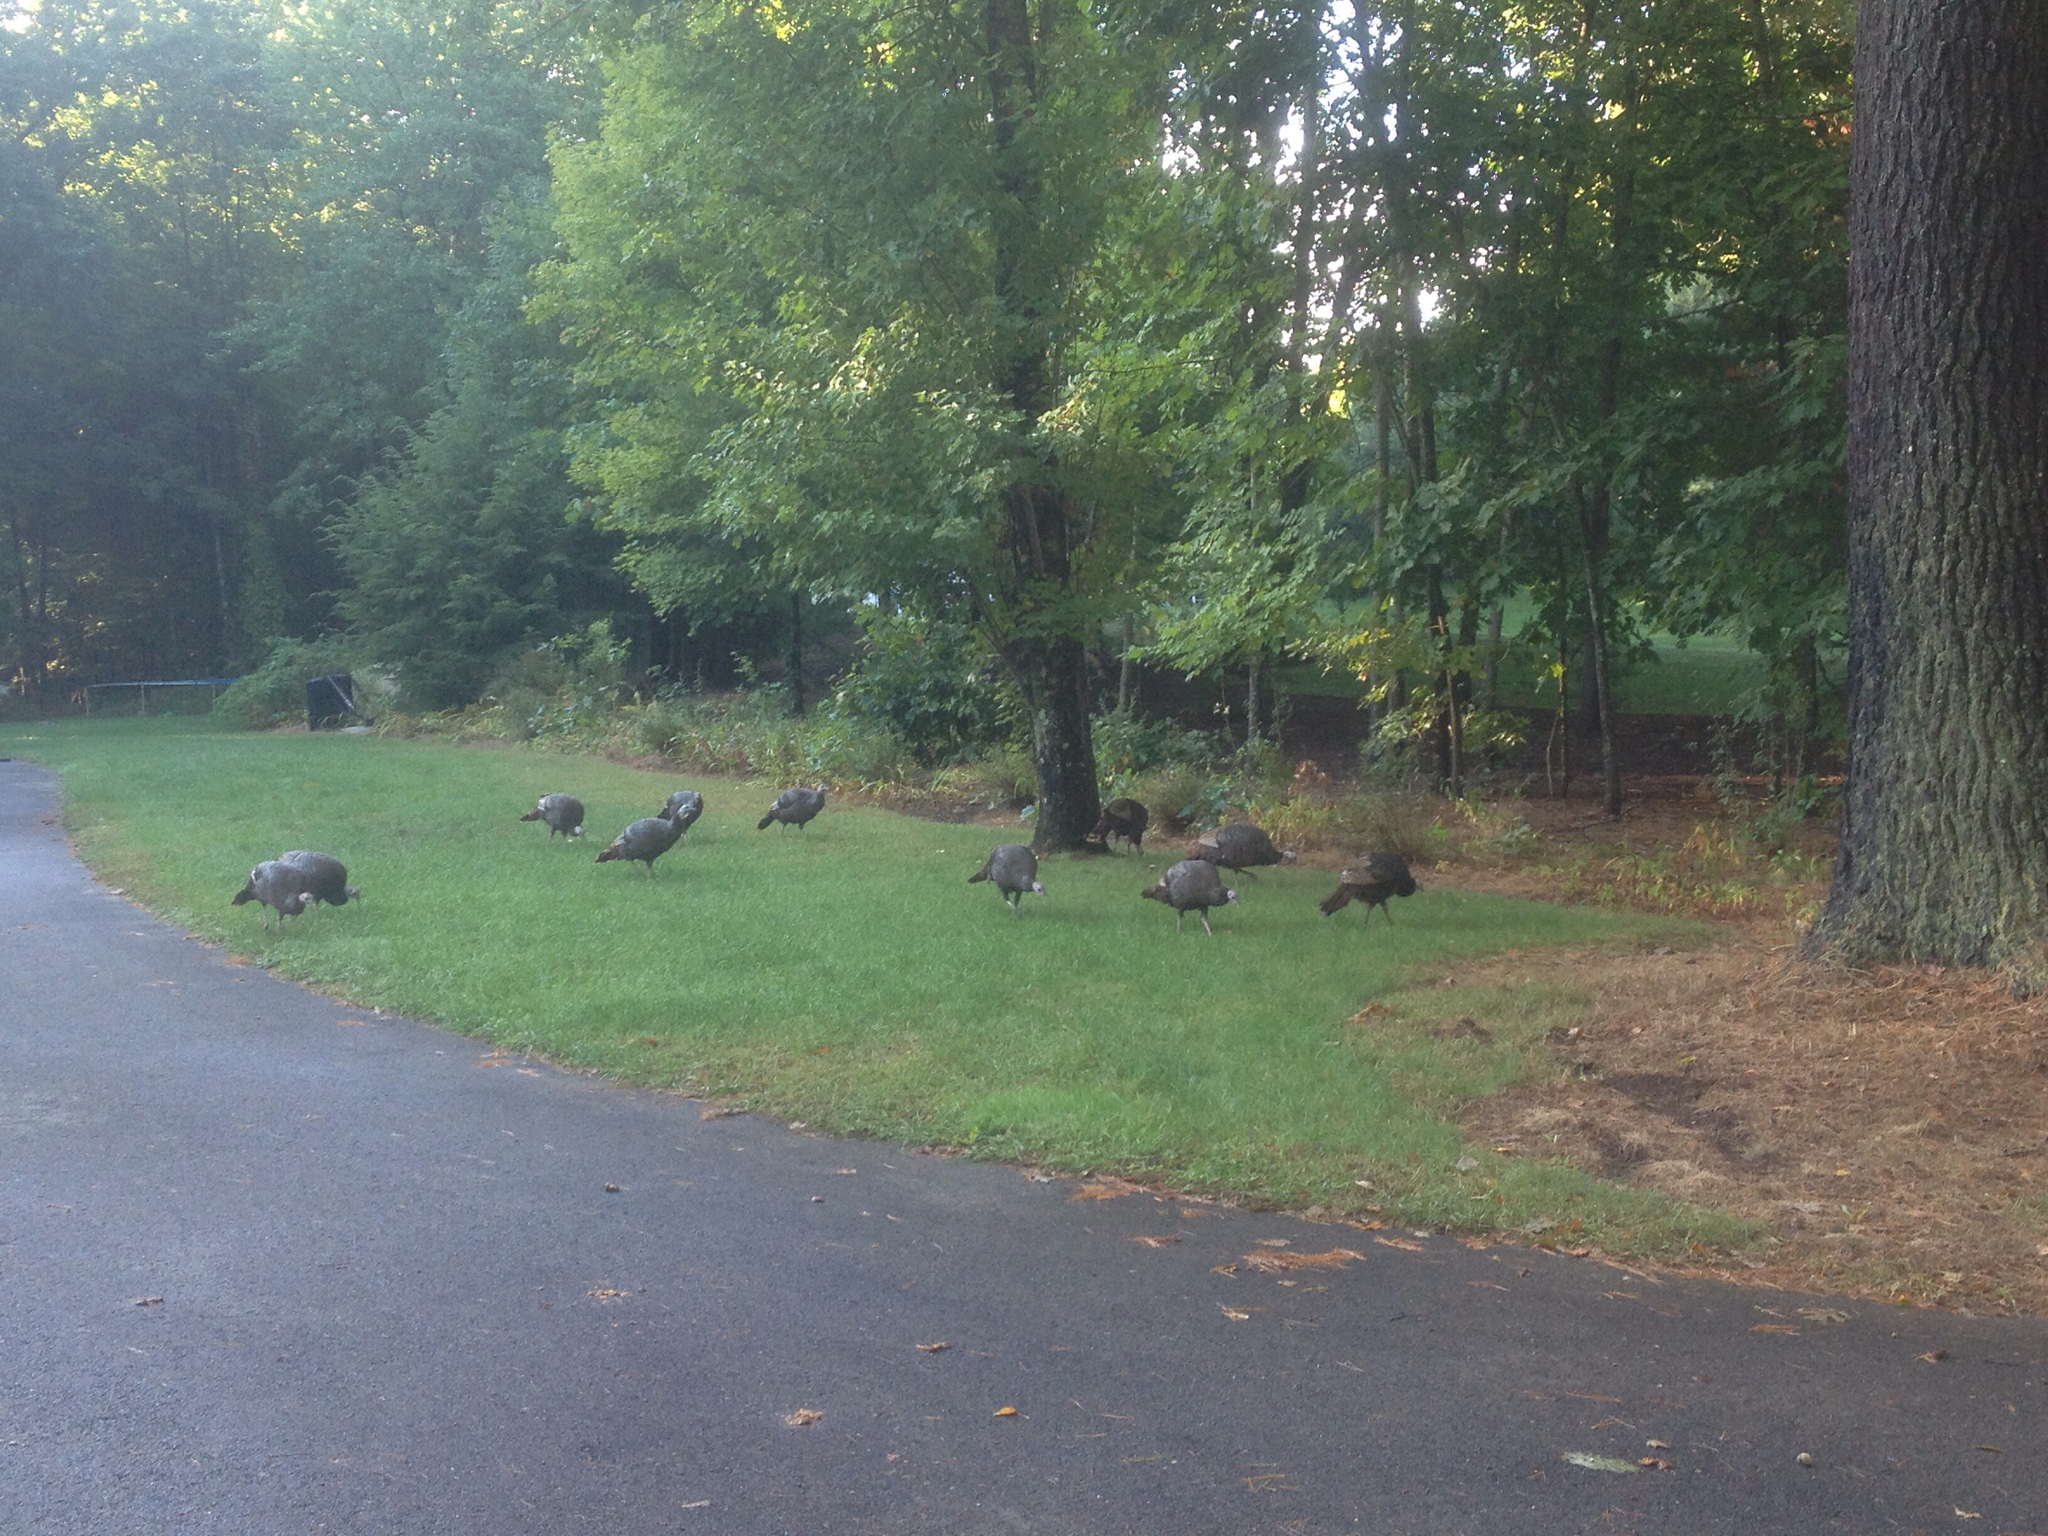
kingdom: Animalia
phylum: Chordata
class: Aves
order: Galliformes
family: Phasianidae
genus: Meleagris
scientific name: Meleagris gallopavo
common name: Wild turkey
